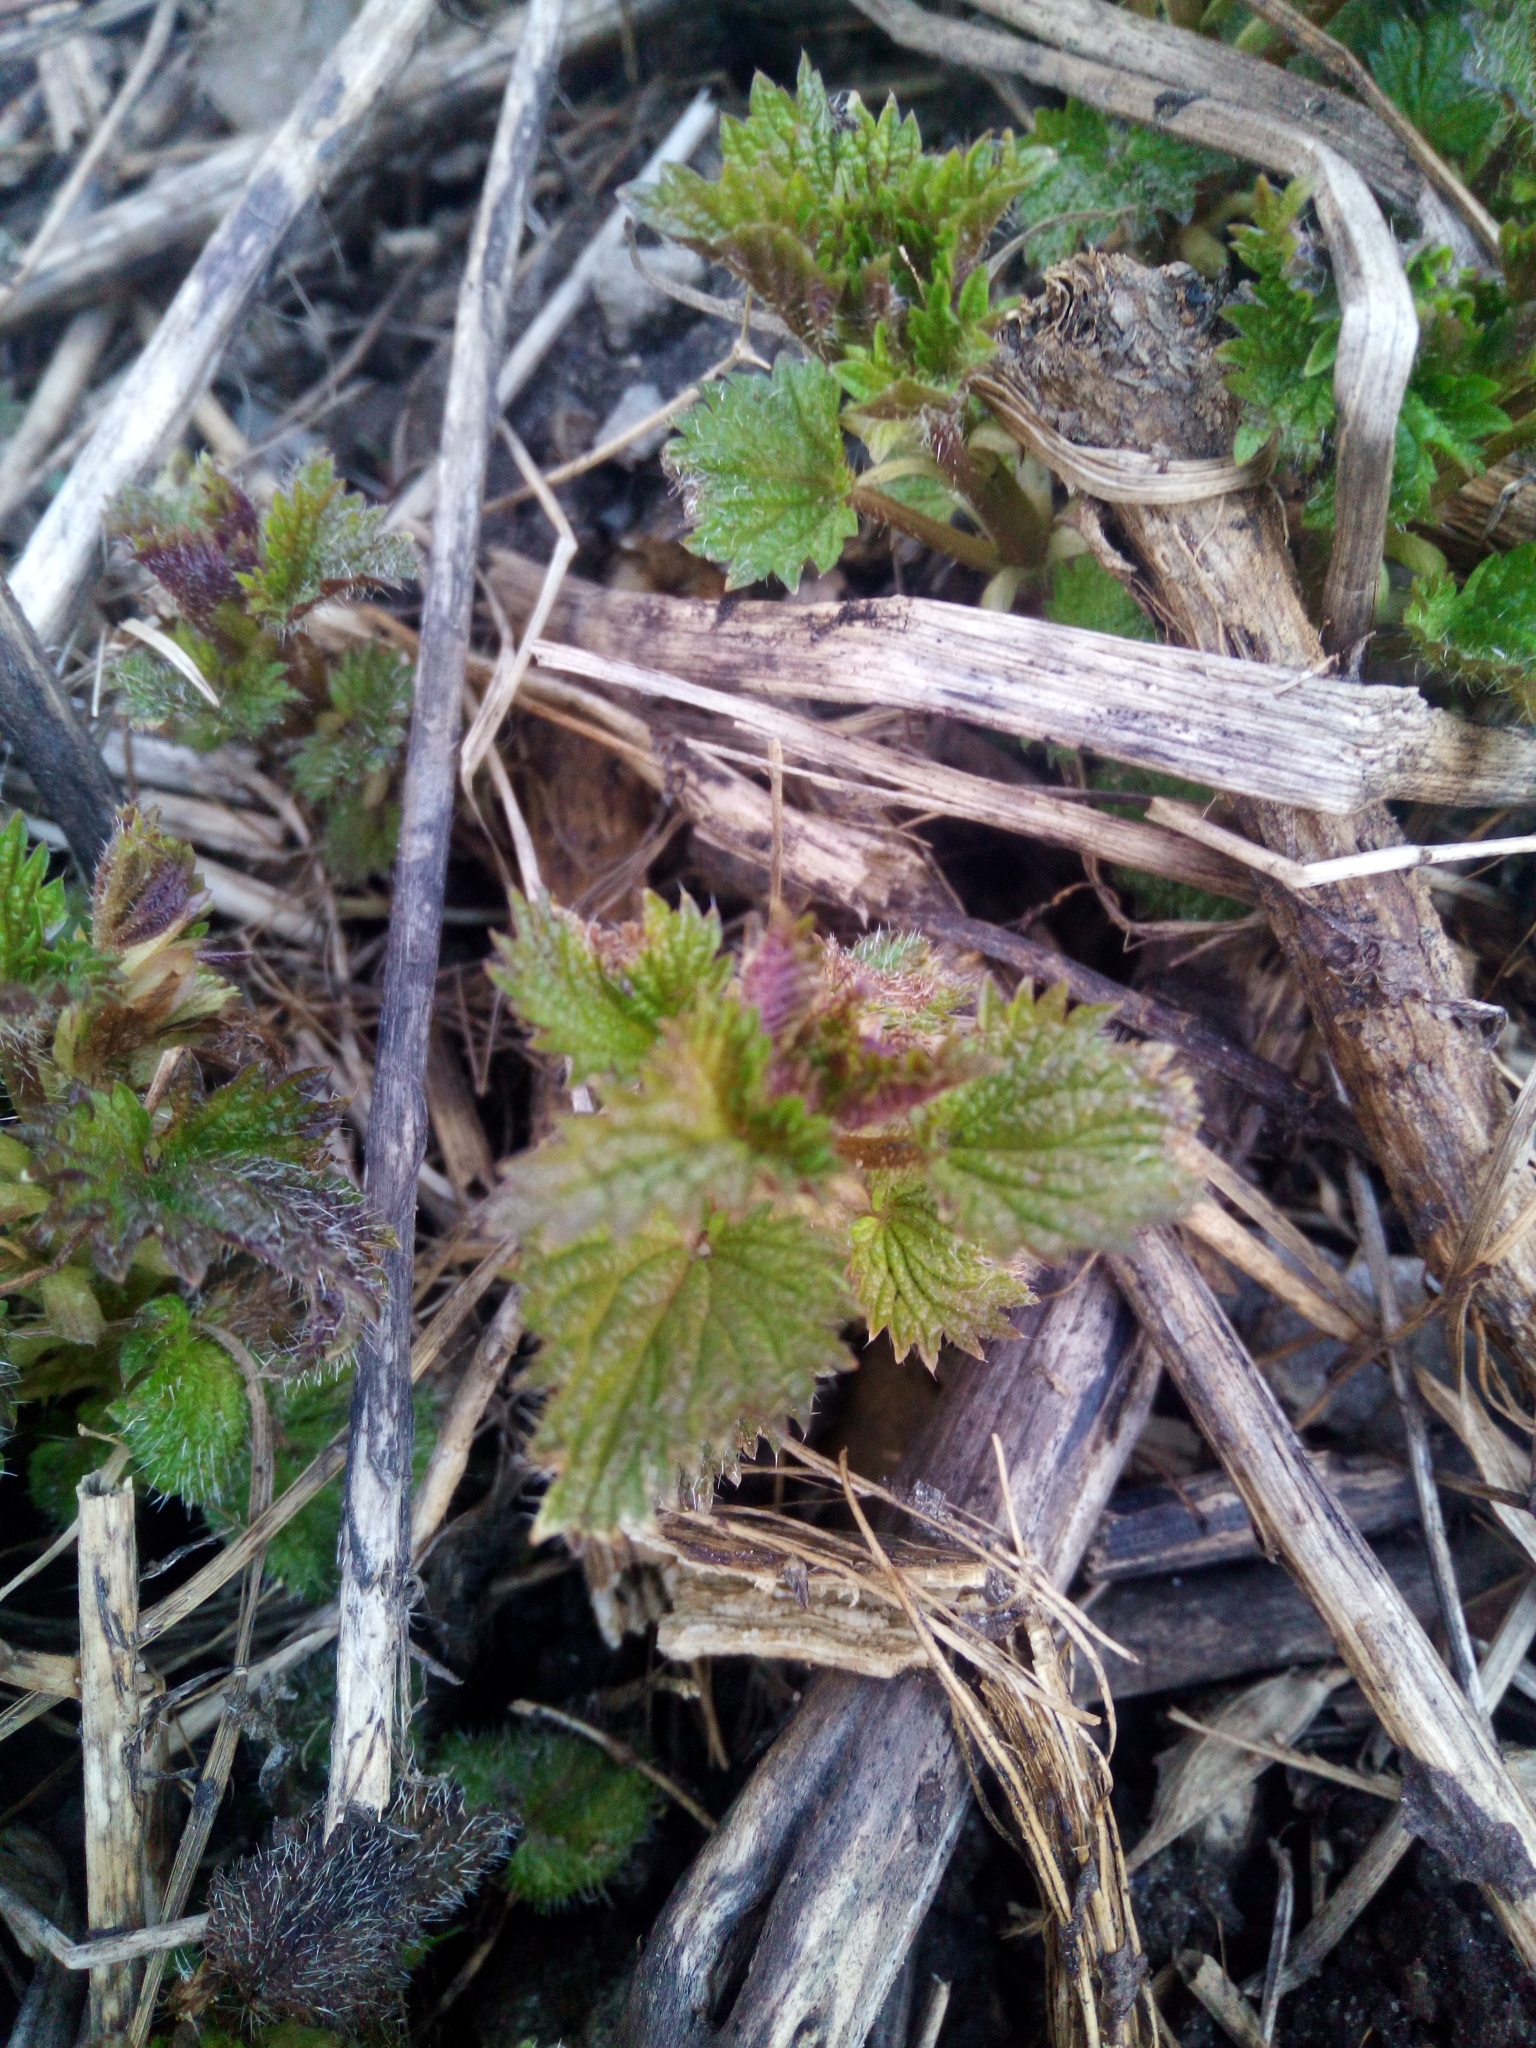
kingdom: Plantae
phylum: Tracheophyta
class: Magnoliopsida
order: Rosales
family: Urticaceae
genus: Urtica
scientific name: Urtica dioica
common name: Common nettle
